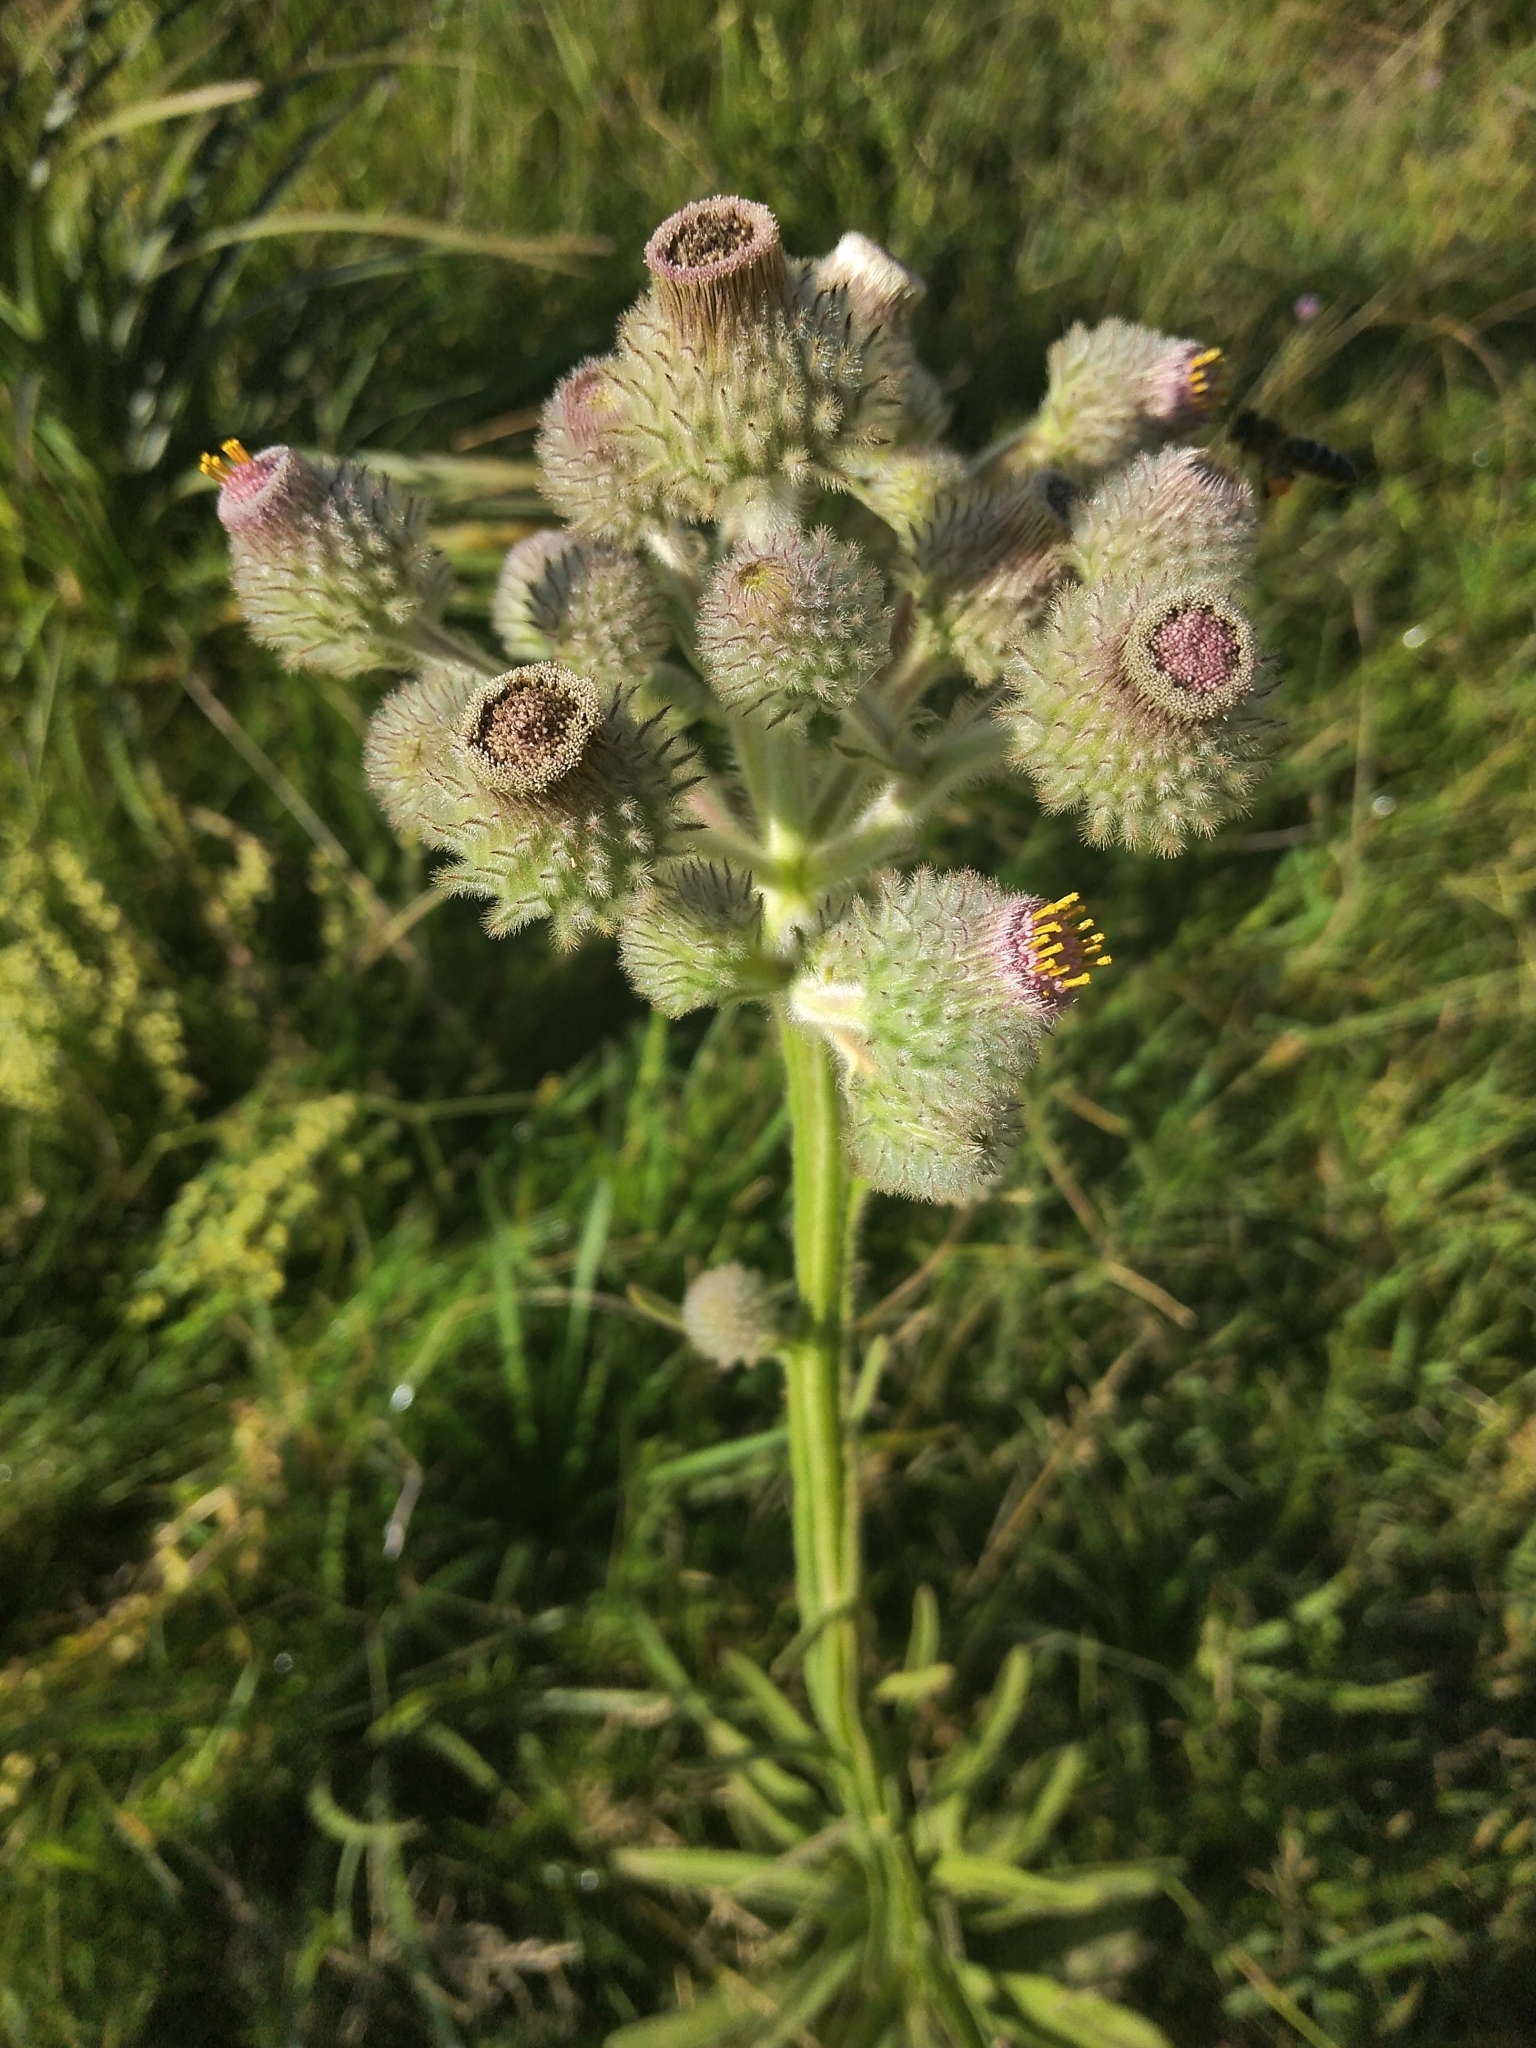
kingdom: Plantae
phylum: Tracheophyta
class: Magnoliopsida
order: Asterales
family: Asteraceae
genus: Stenachaenium
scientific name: Stenachaenium macrocephalum
